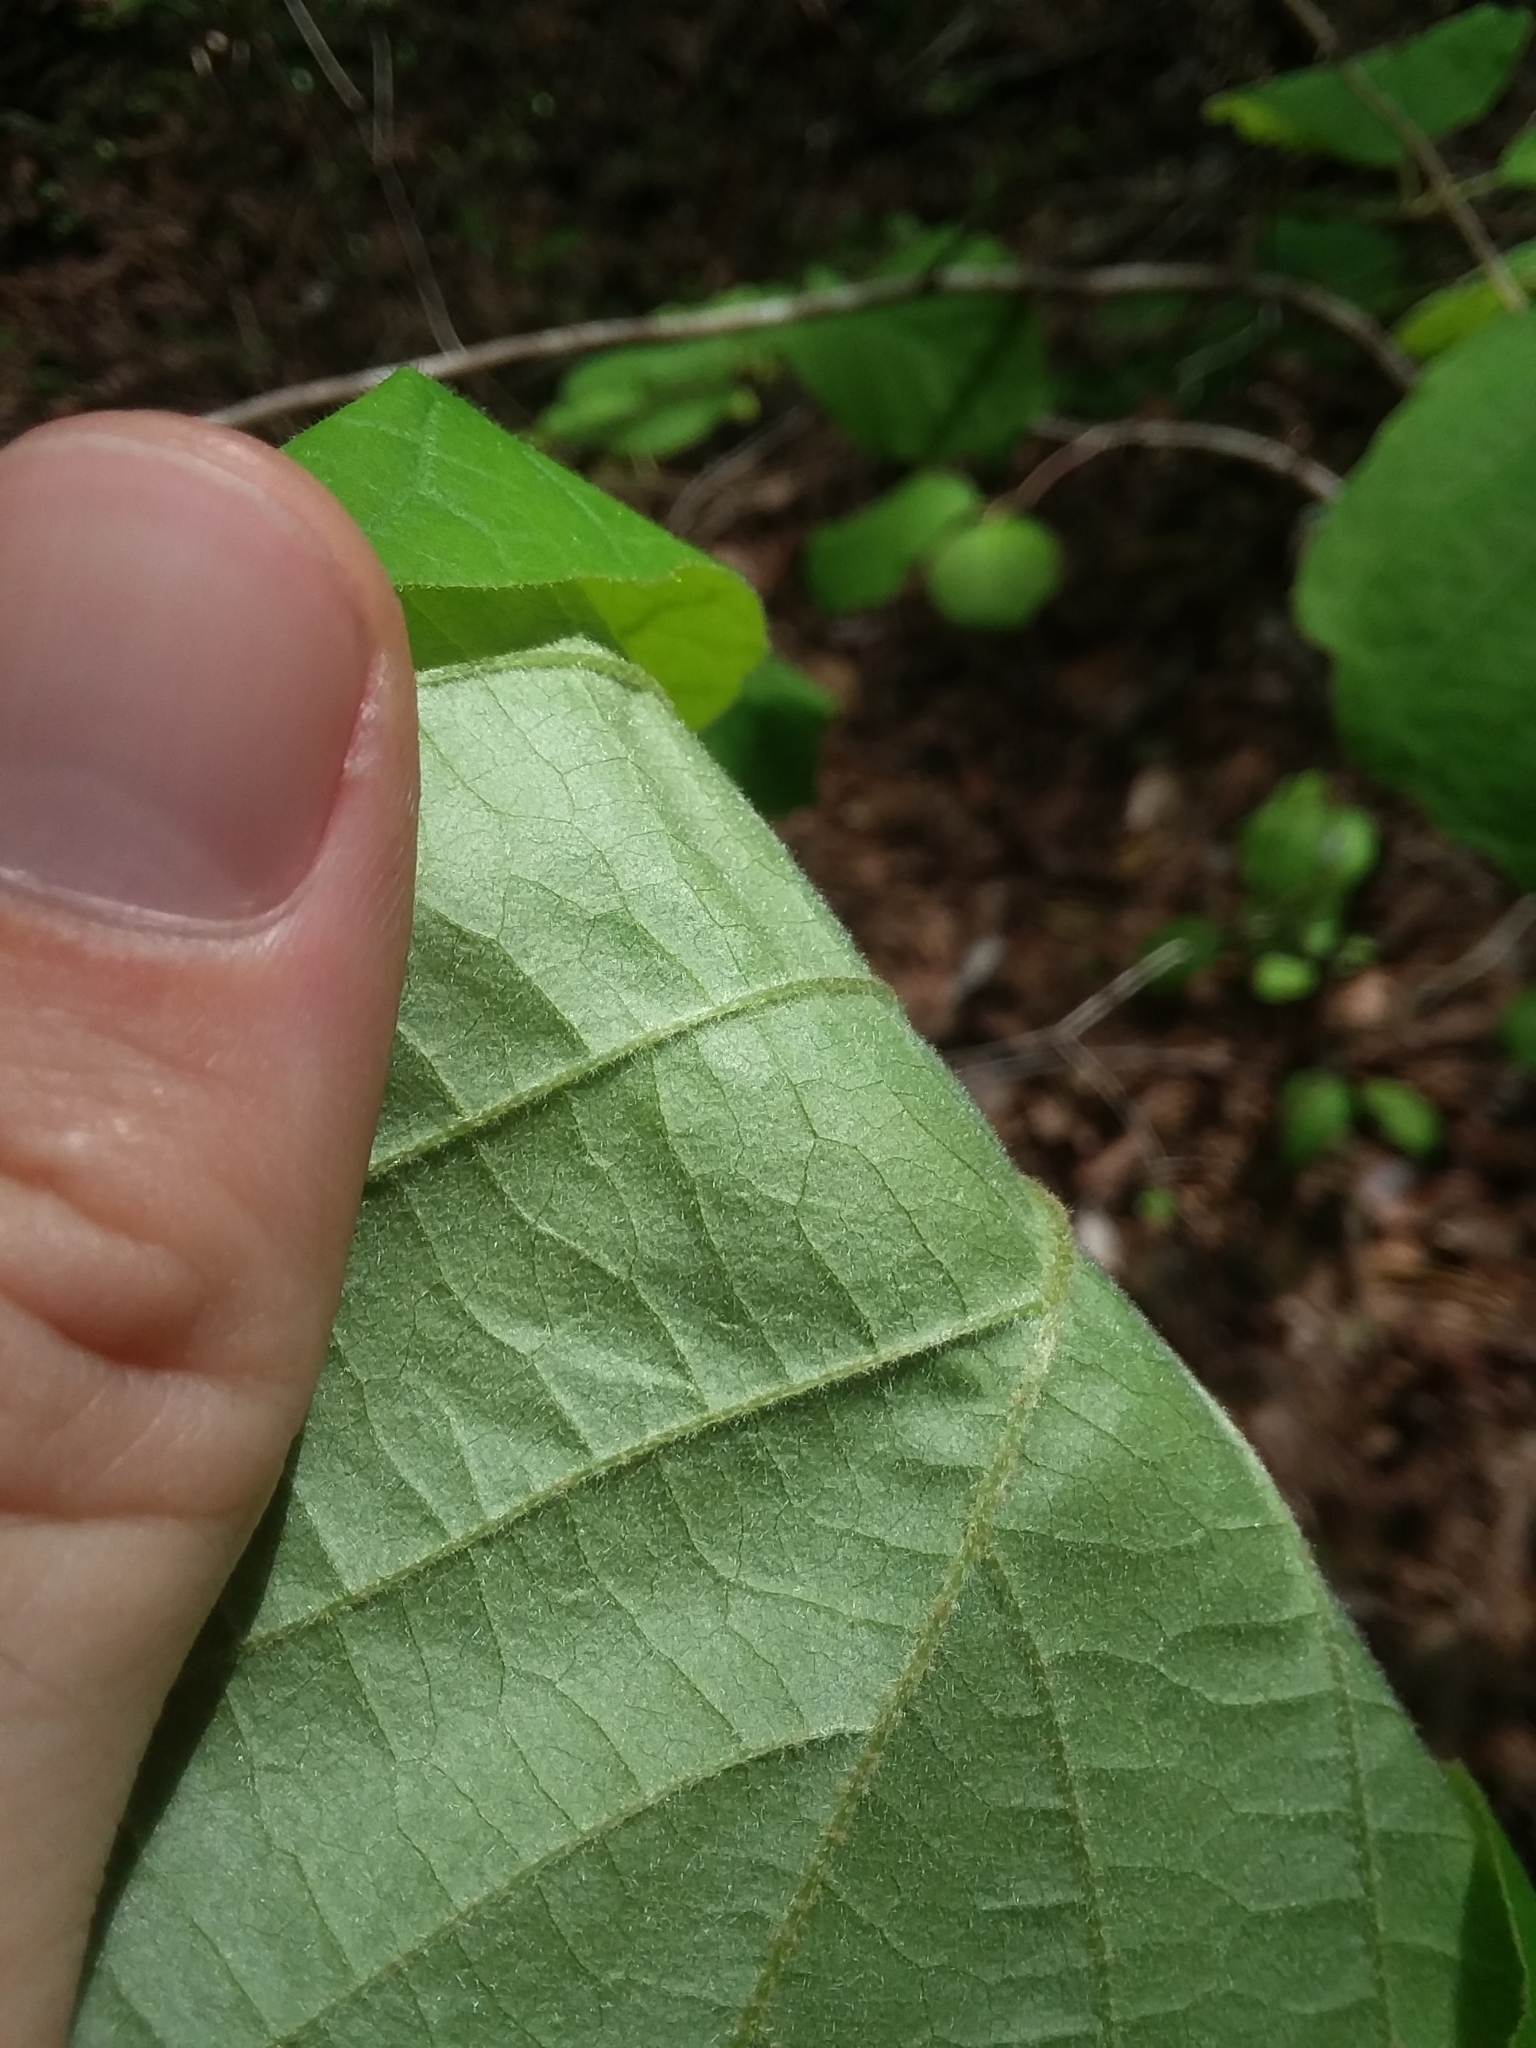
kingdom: Plantae
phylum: Tracheophyta
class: Magnoliopsida
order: Saxifragales
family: Hamamelidaceae
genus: Hamamelis
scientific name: Hamamelis ovalis
